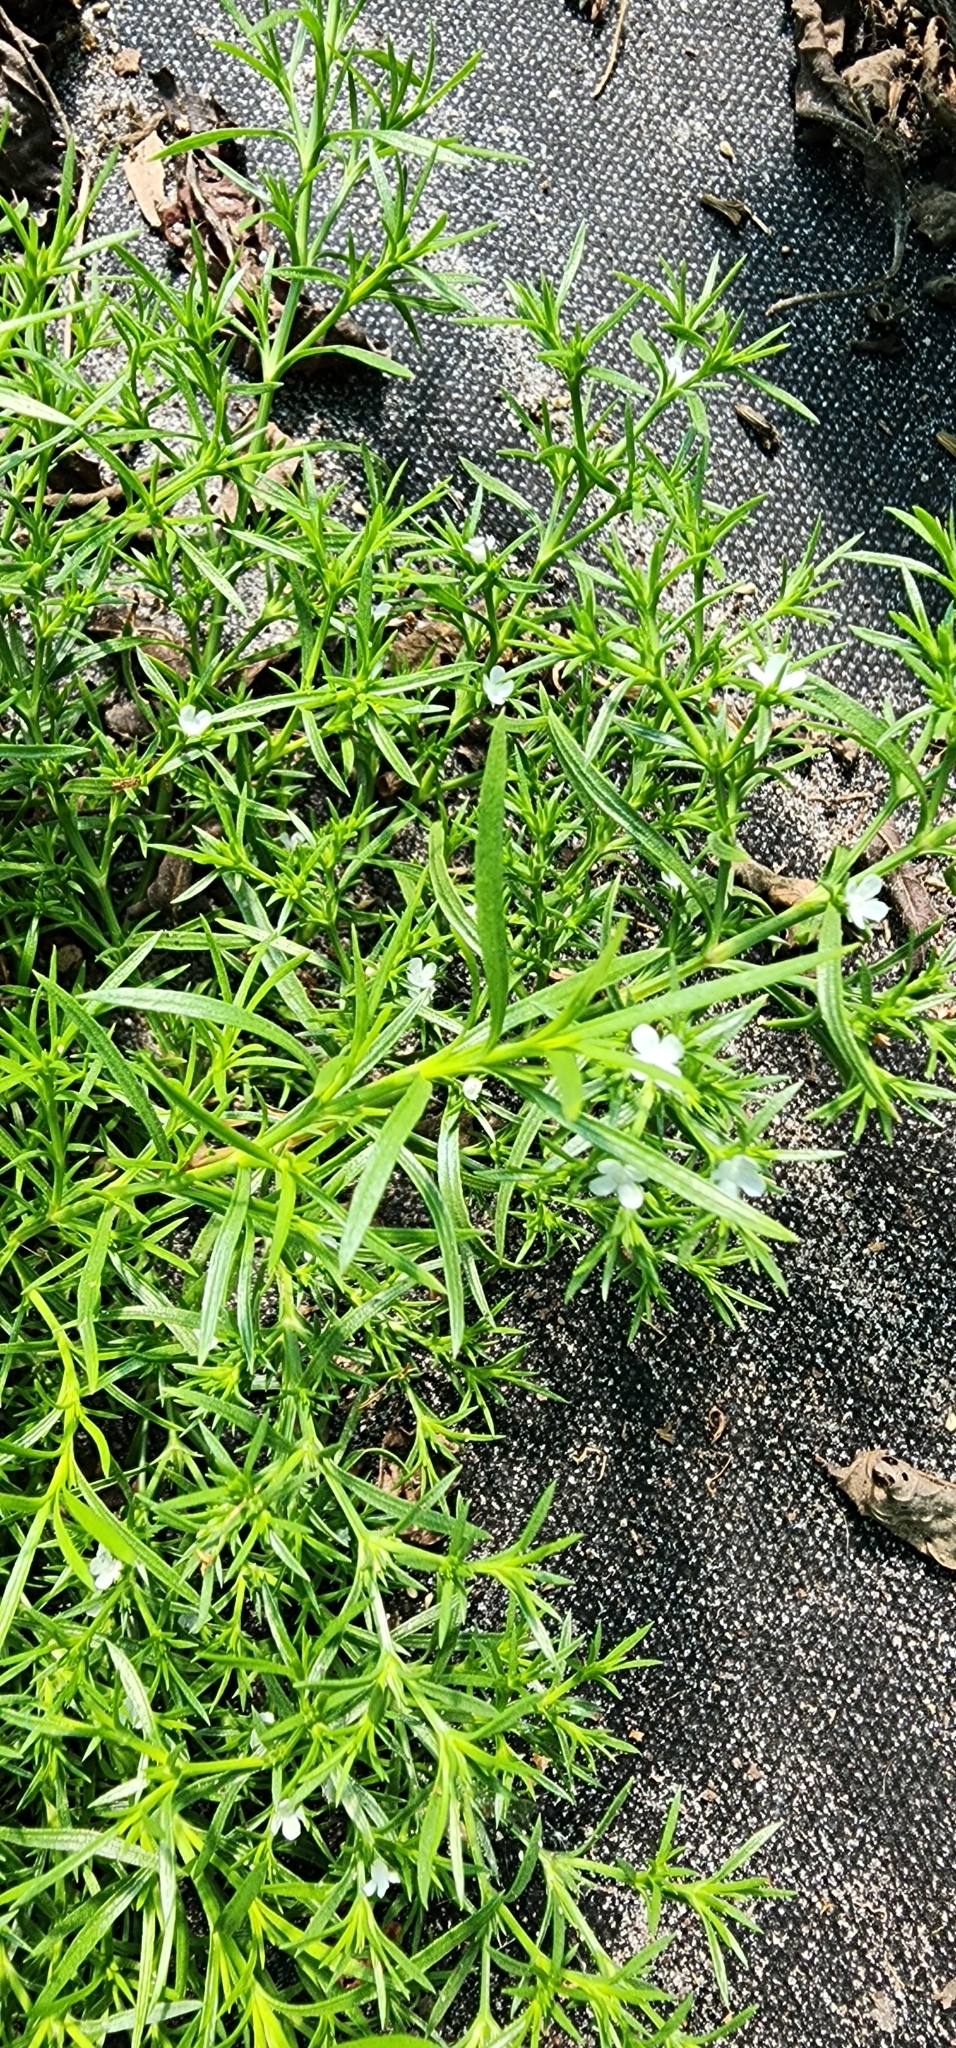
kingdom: Plantae
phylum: Tracheophyta
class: Magnoliopsida
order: Lamiales
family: Tetrachondraceae
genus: Polypremum
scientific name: Polypremum procumbens
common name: Juniper-leaf
